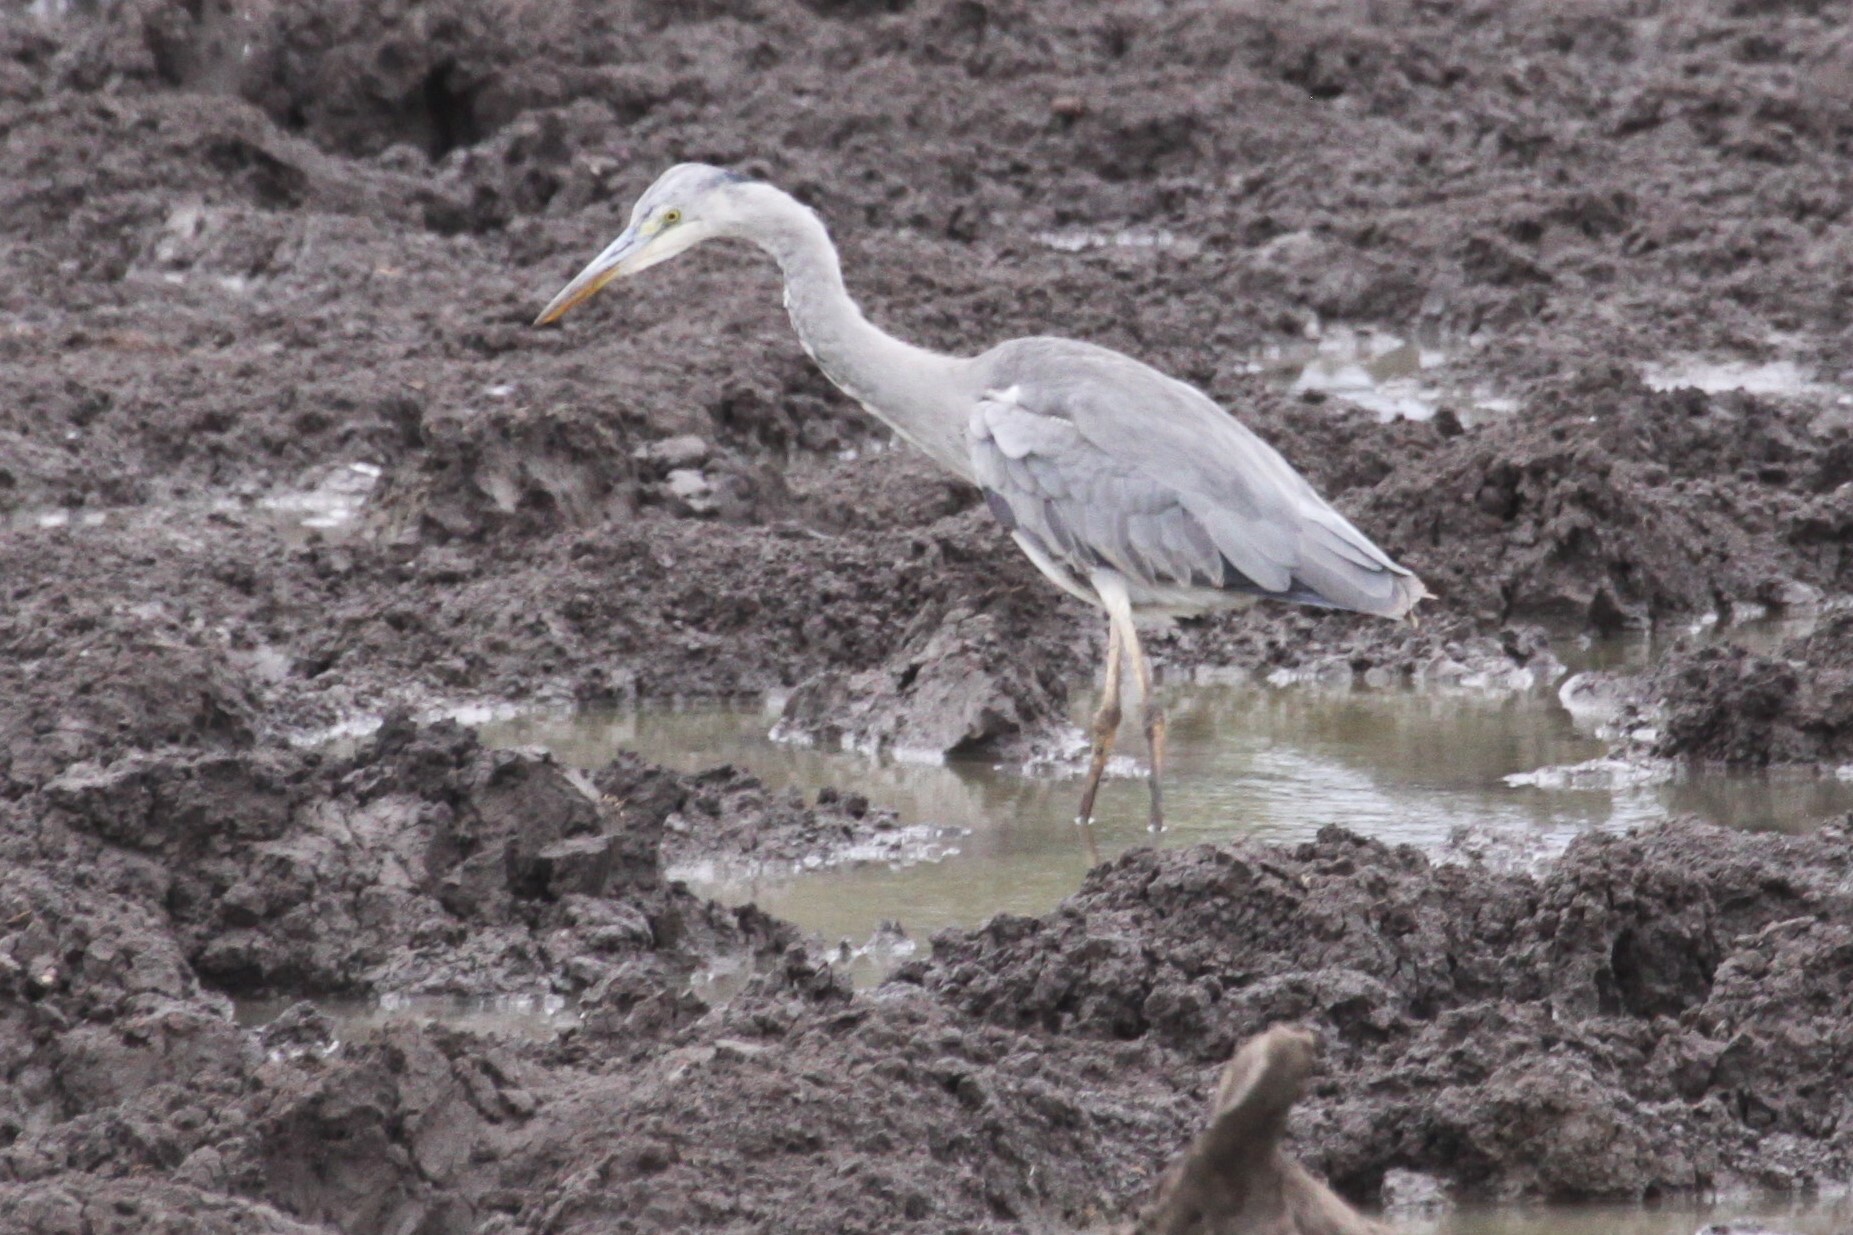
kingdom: Animalia
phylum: Chordata
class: Aves
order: Pelecaniformes
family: Ardeidae
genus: Ardea
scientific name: Ardea cinerea
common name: Grey heron
